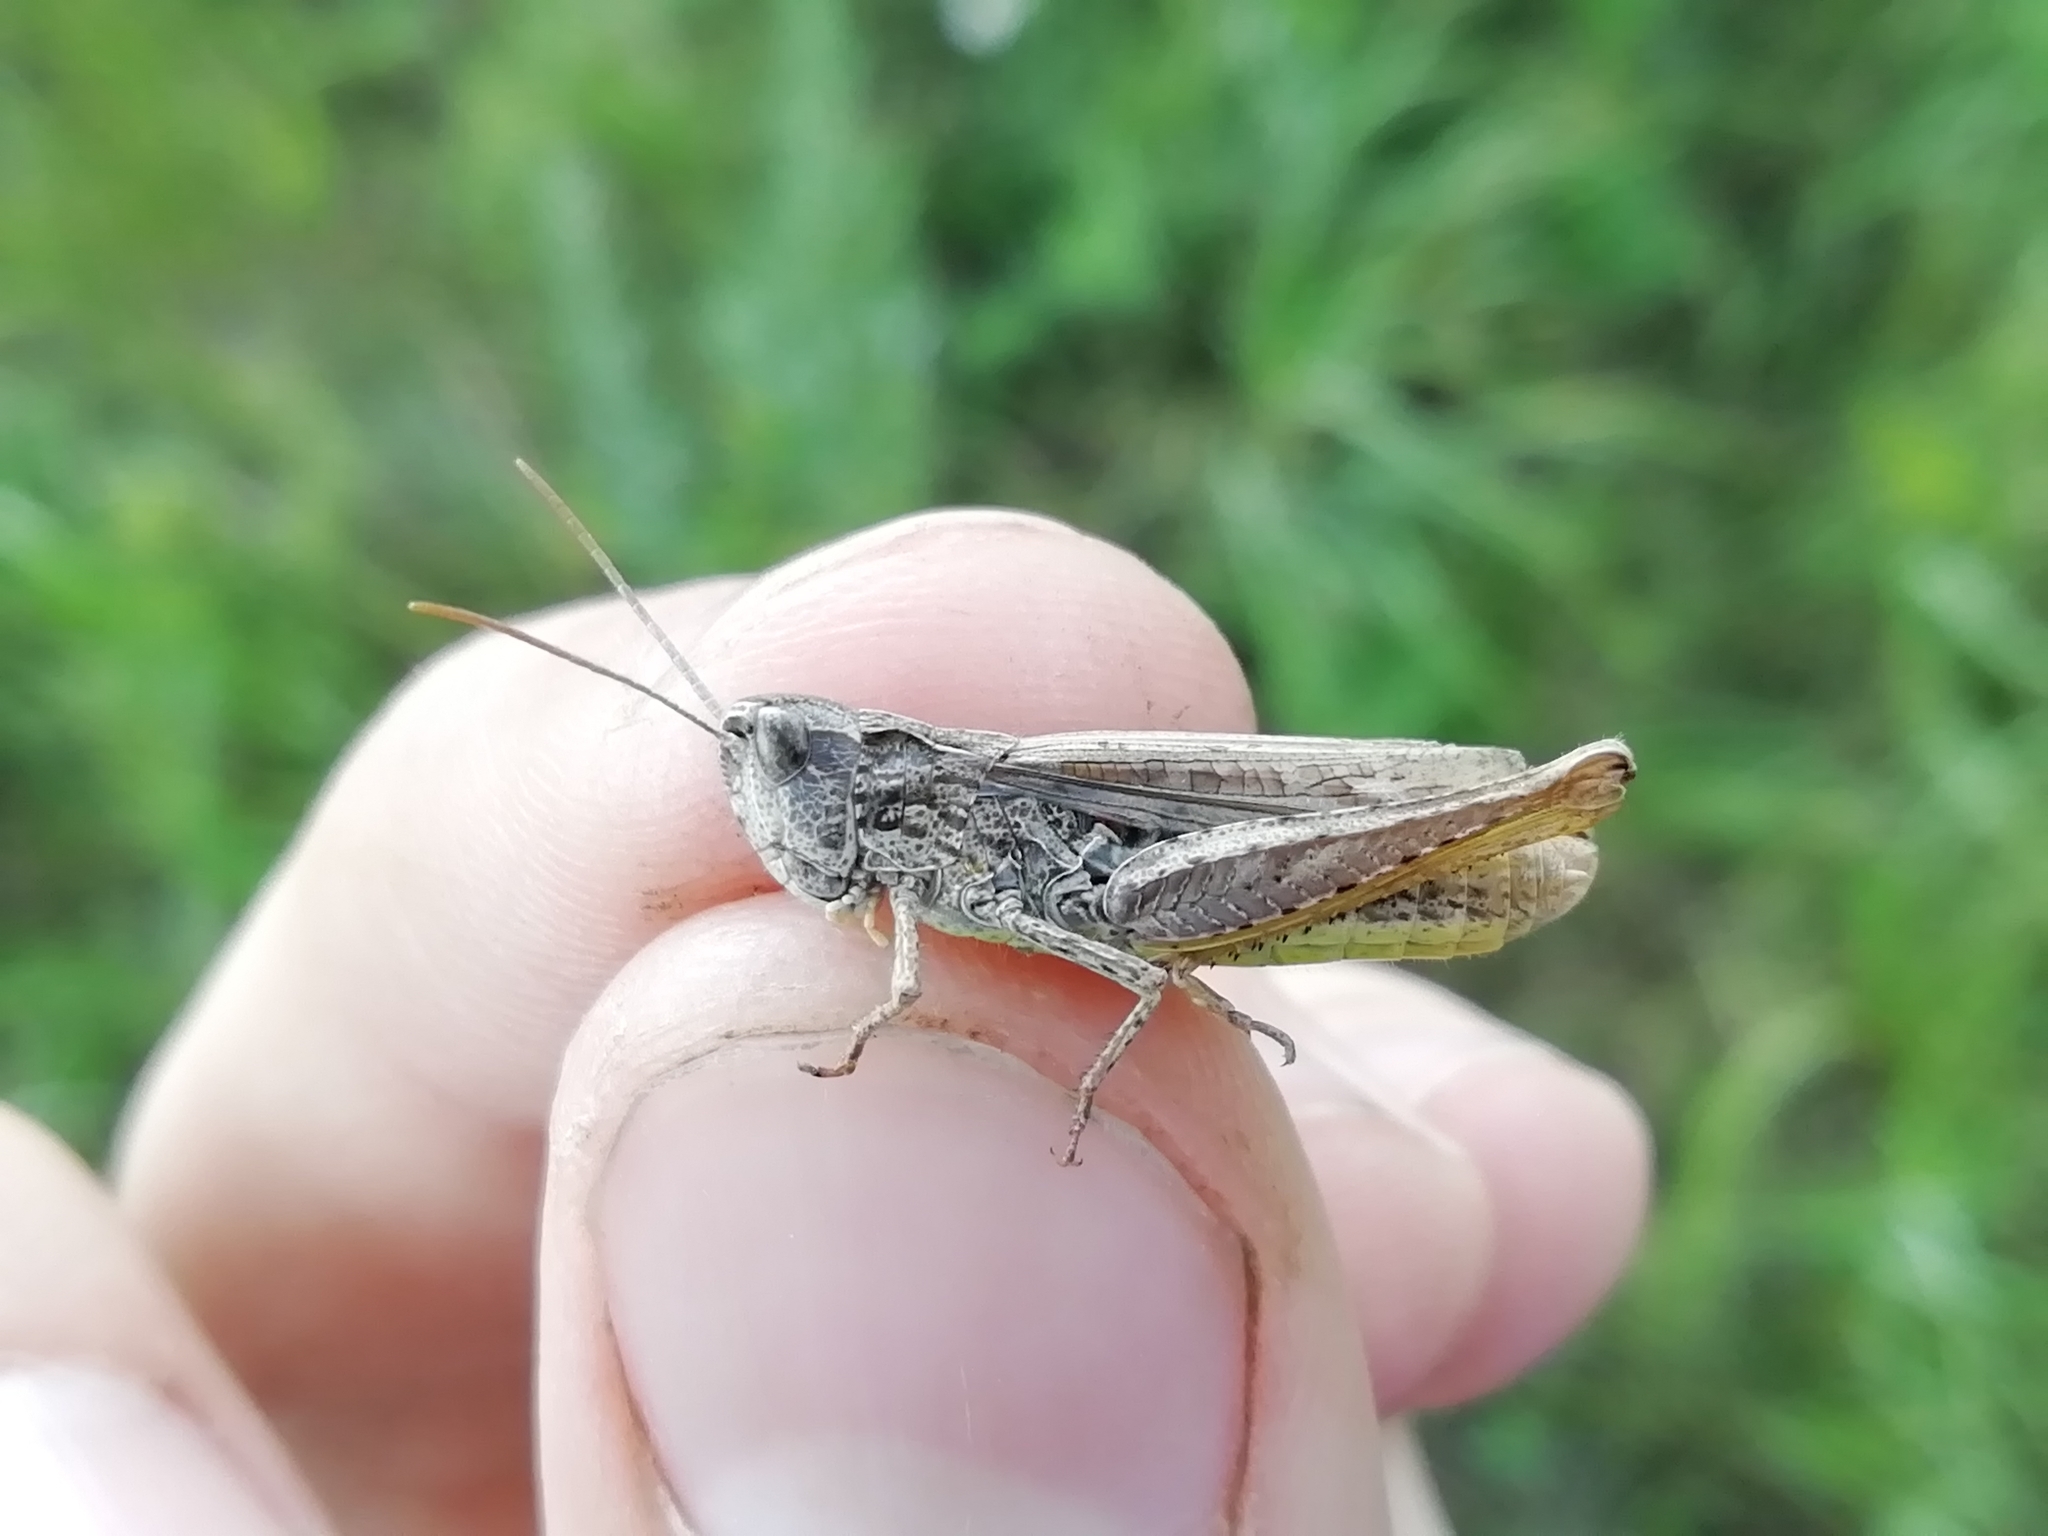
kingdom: Animalia
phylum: Arthropoda
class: Insecta
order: Orthoptera
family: Acrididae
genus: Chorthippus
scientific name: Chorthippus apricarius
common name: Upland field grasshopper
